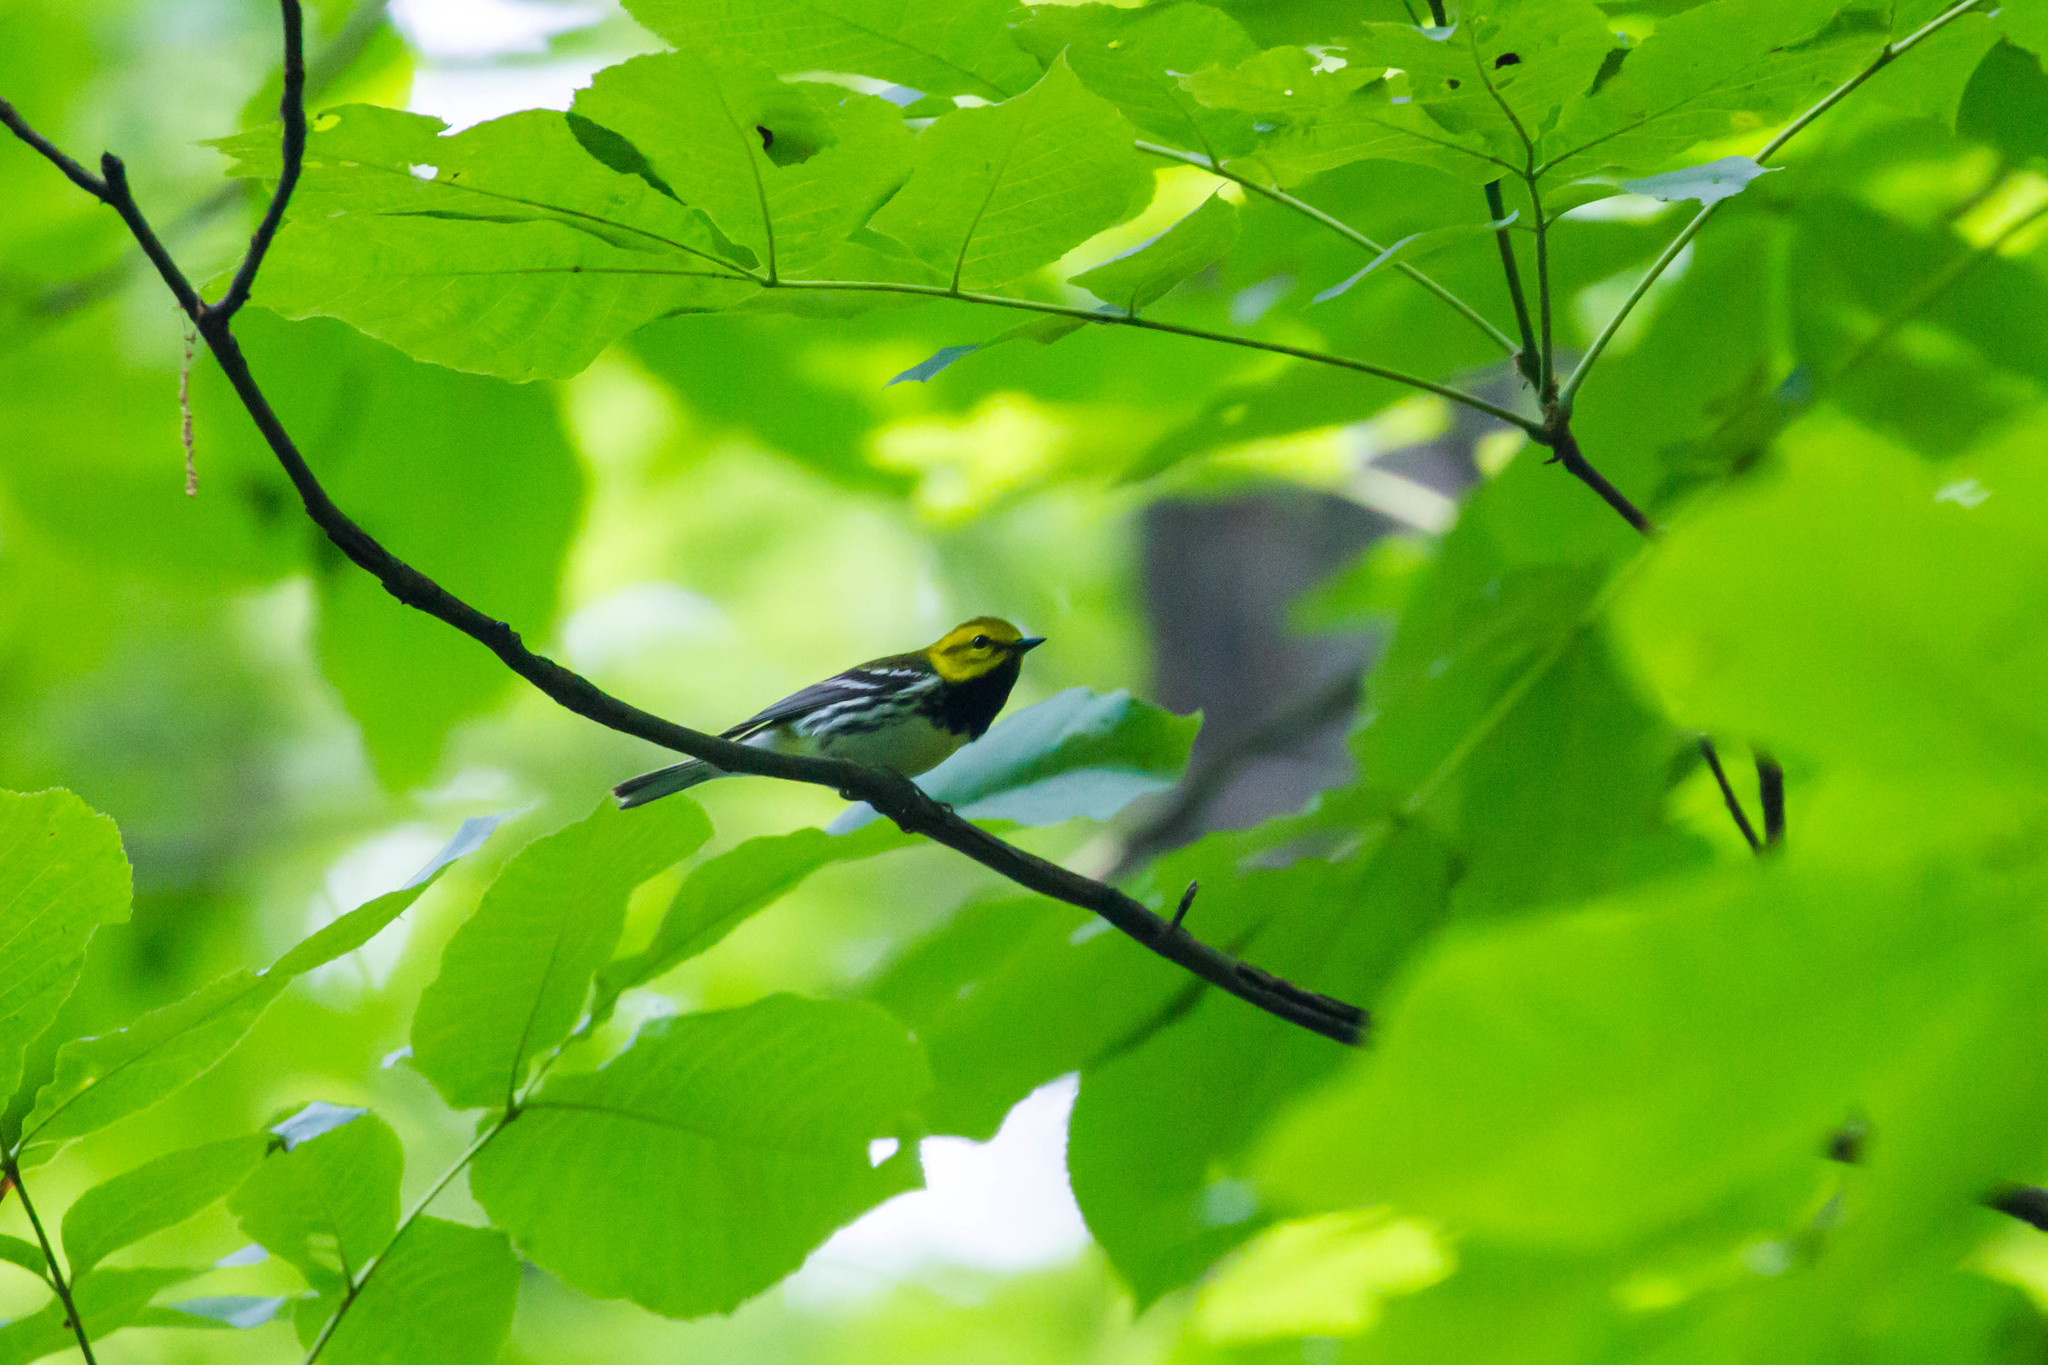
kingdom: Animalia
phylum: Chordata
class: Aves
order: Passeriformes
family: Parulidae
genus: Setophaga
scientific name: Setophaga virens
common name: Black-throated green warbler
